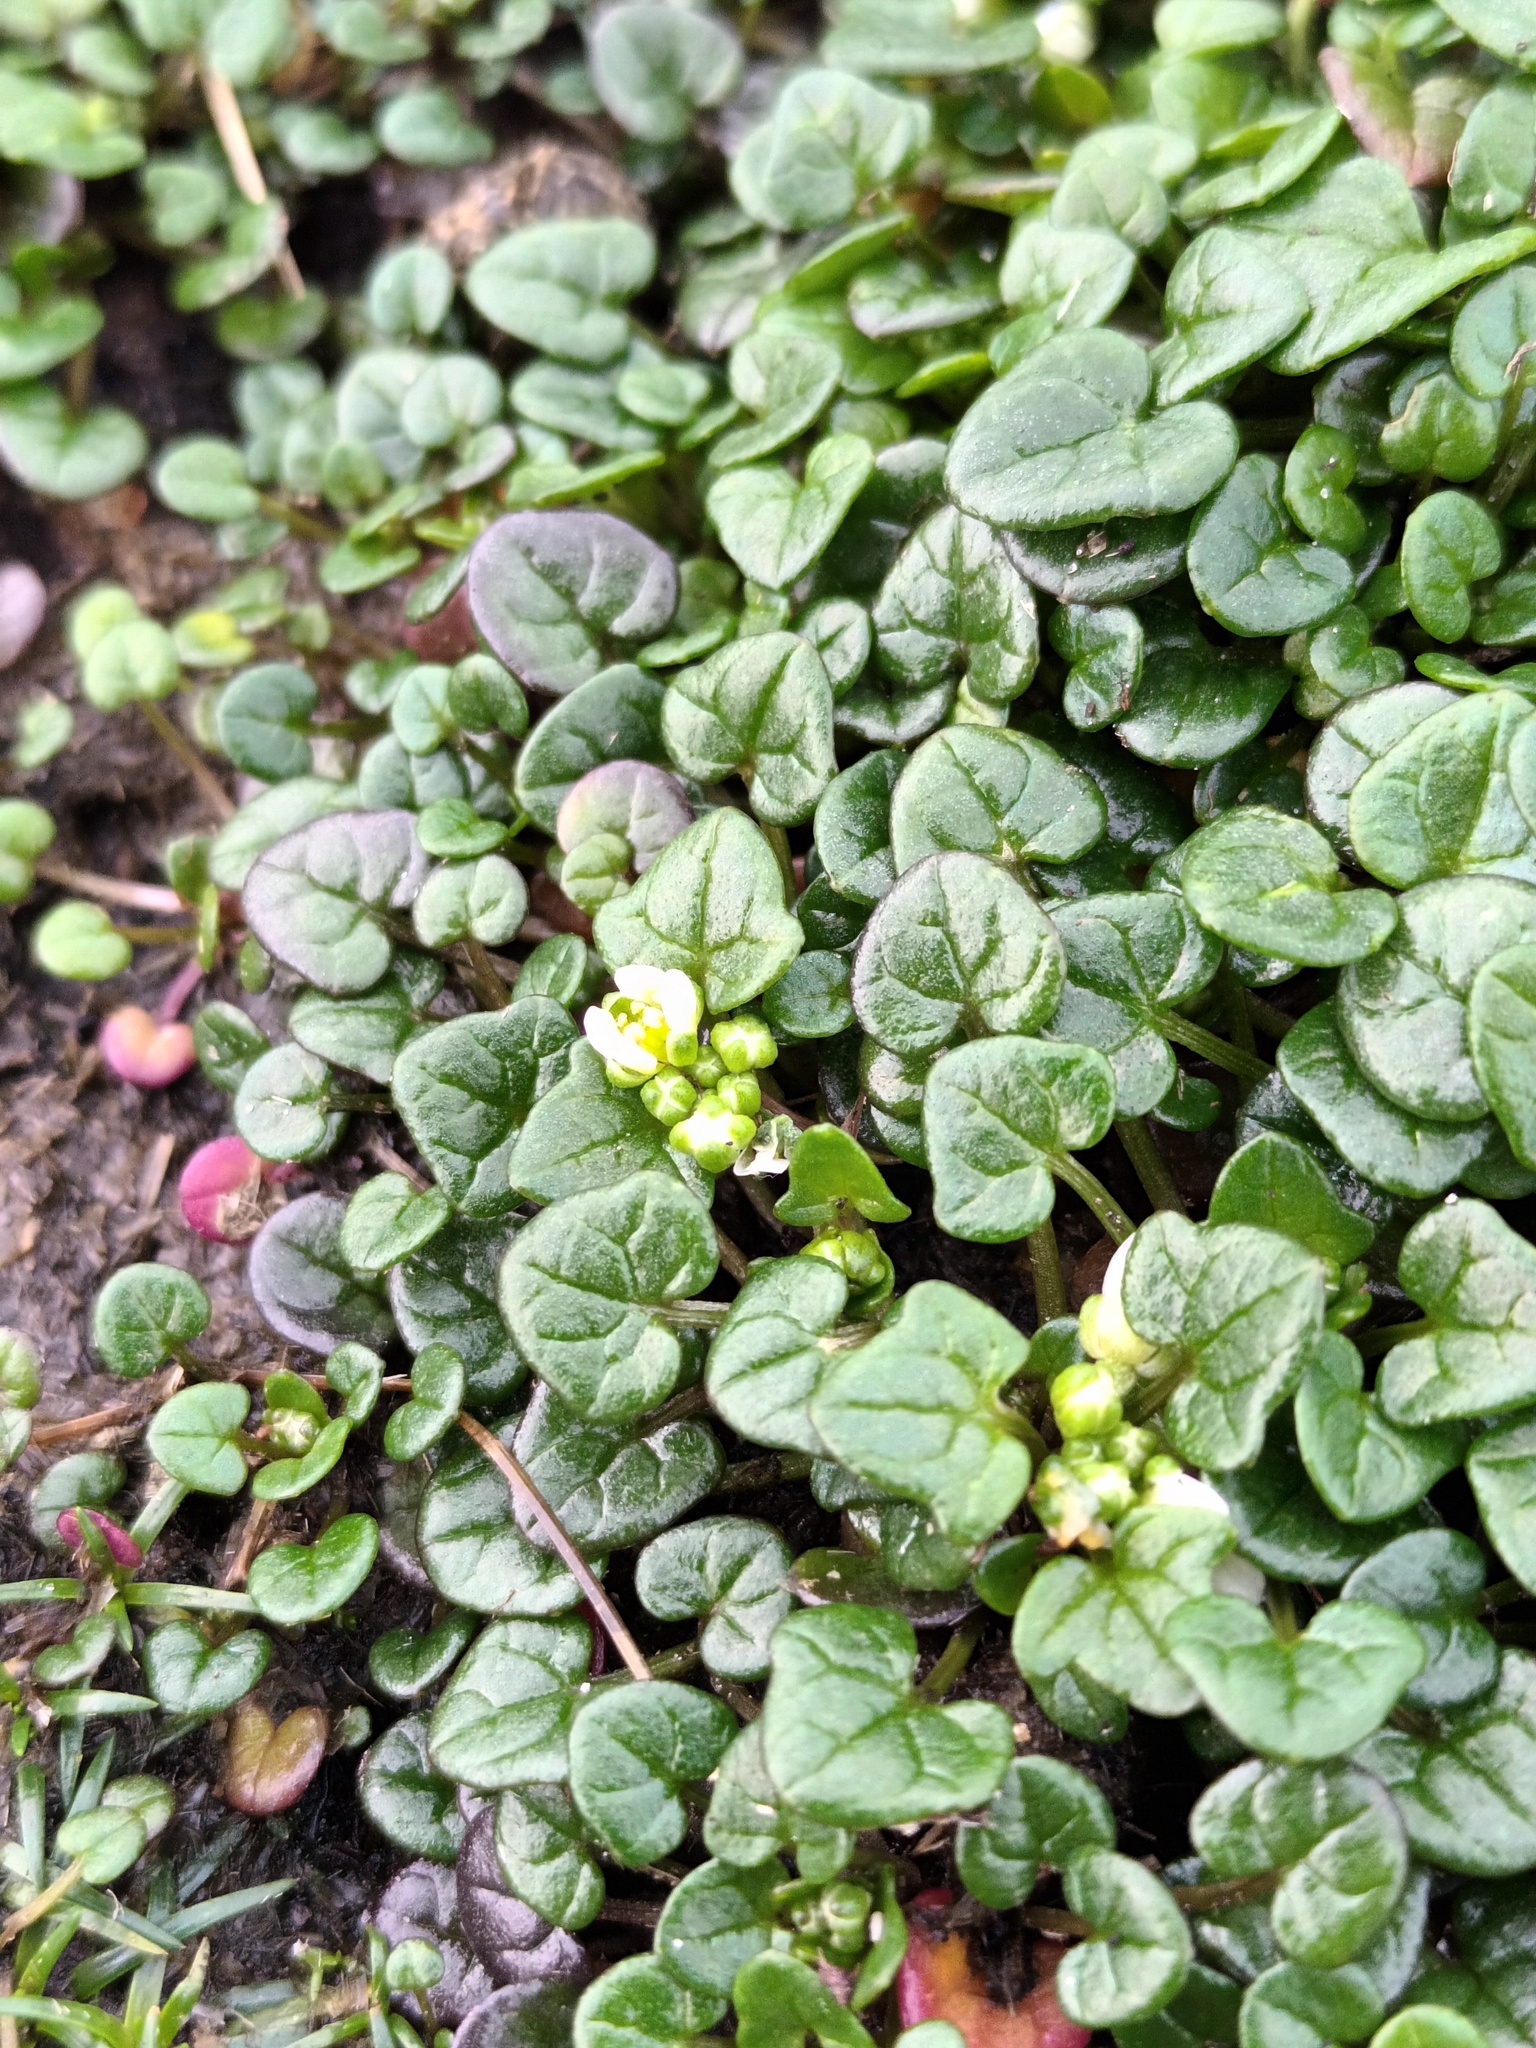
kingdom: Plantae
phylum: Tracheophyta
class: Magnoliopsida
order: Brassicales
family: Brassicaceae
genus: Cochlearia
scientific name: Cochlearia danica
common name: Early scurvygrass
